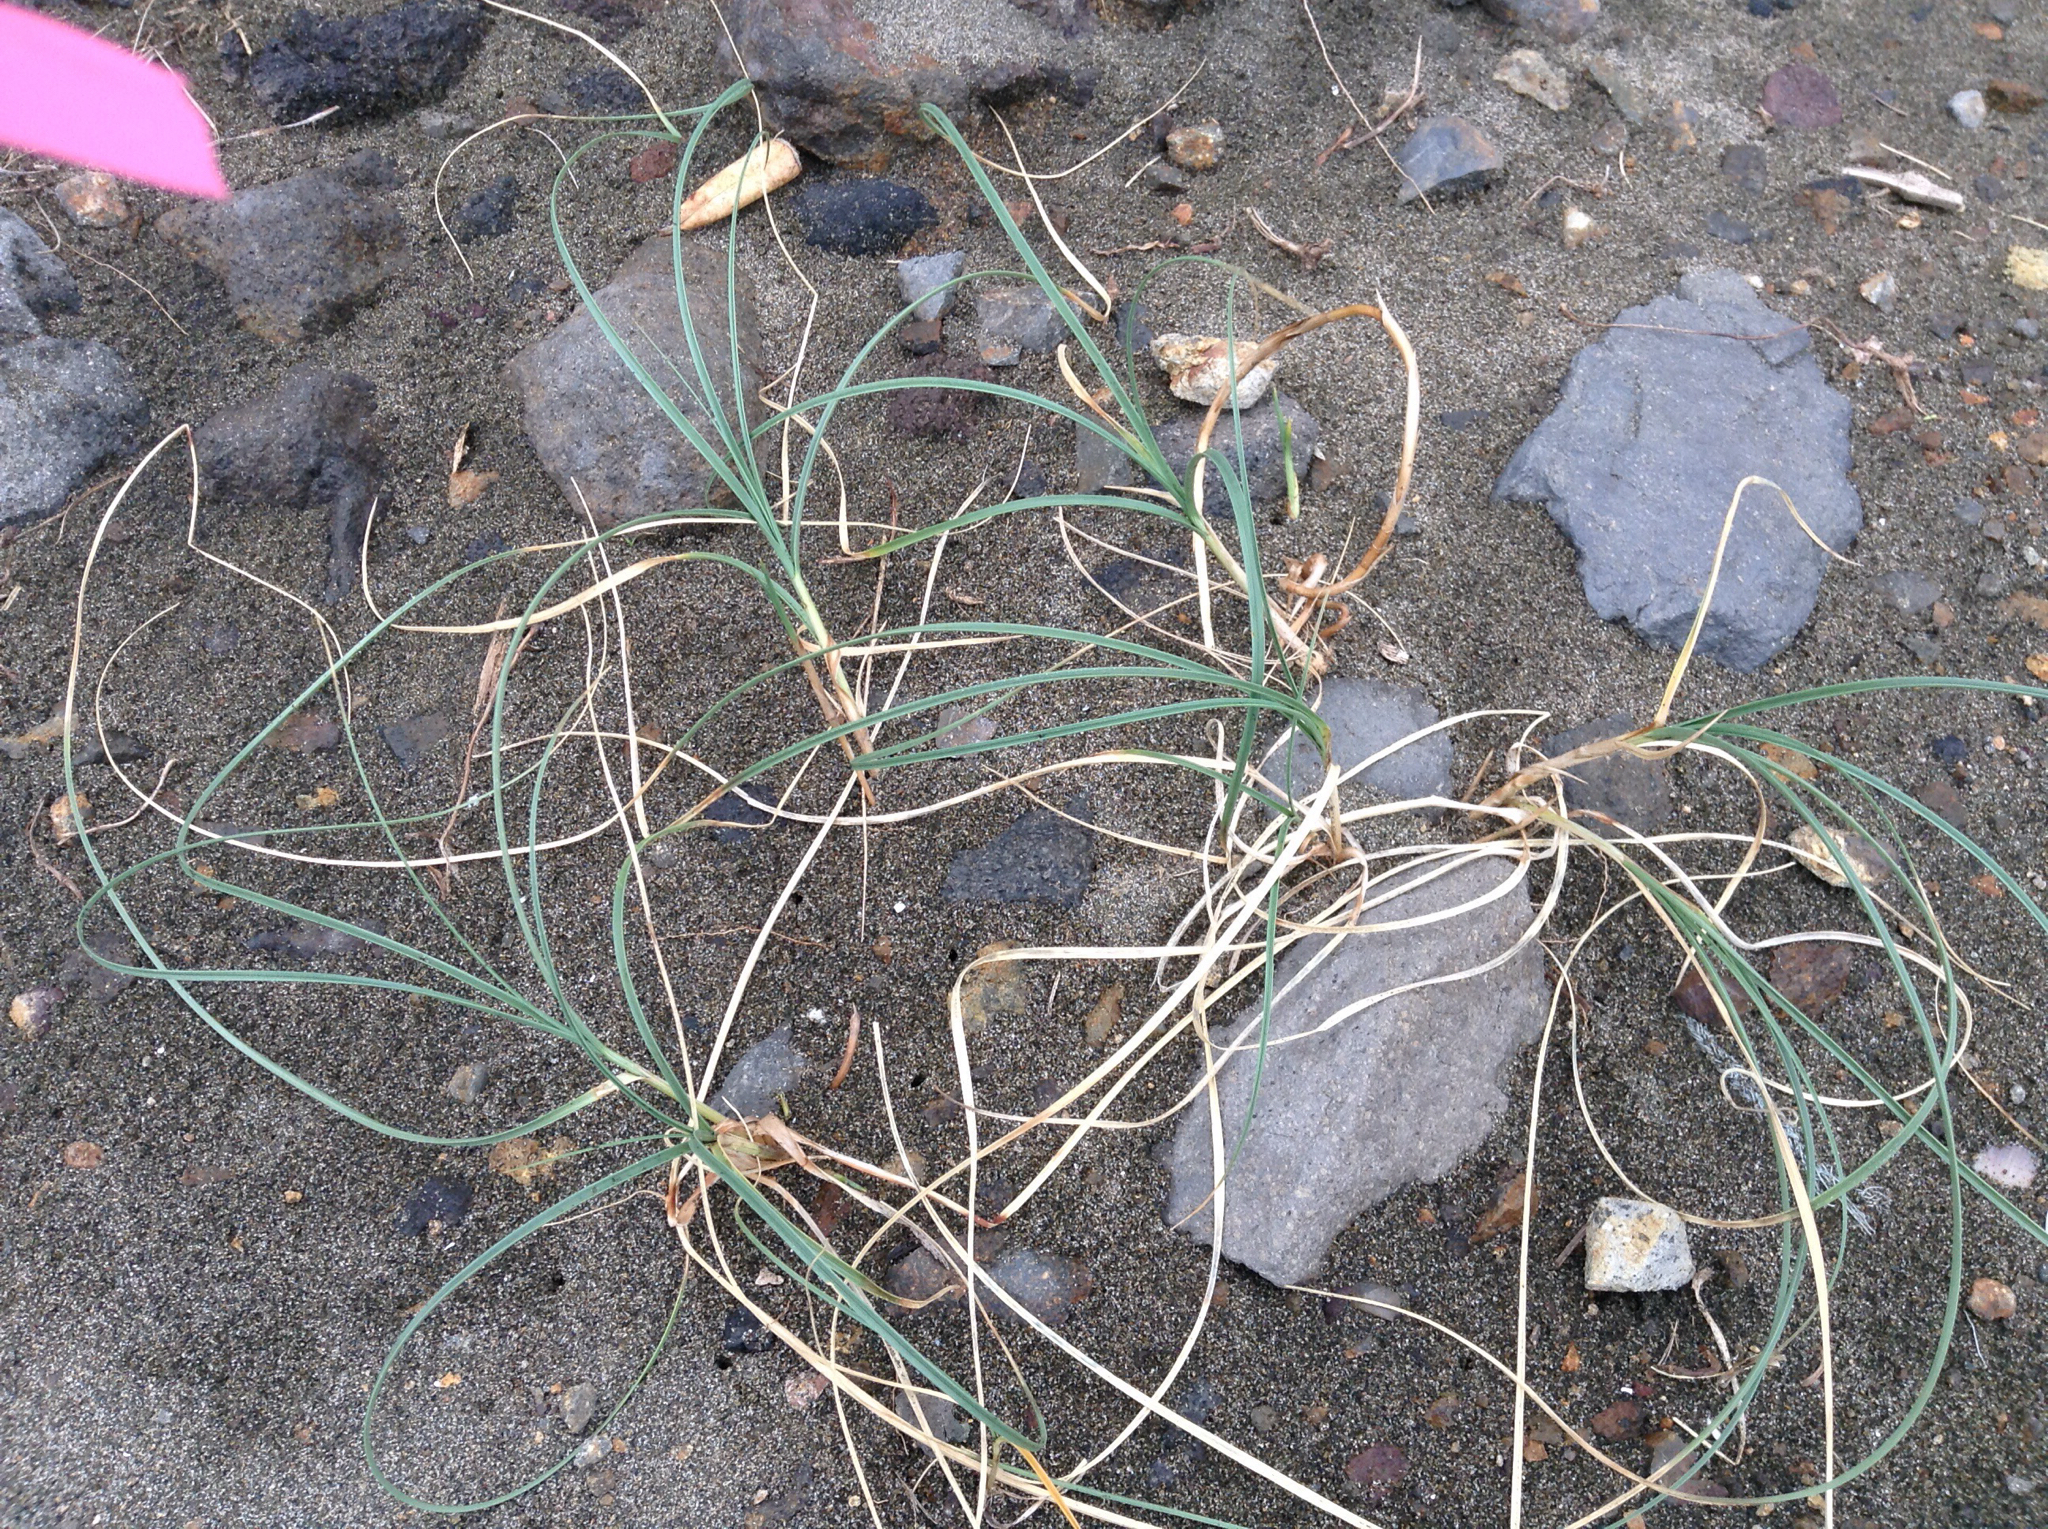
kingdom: Plantae
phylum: Tracheophyta
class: Liliopsida
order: Poales
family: Cyperaceae
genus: Carex
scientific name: Carex pumila
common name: Dwarf sedge
